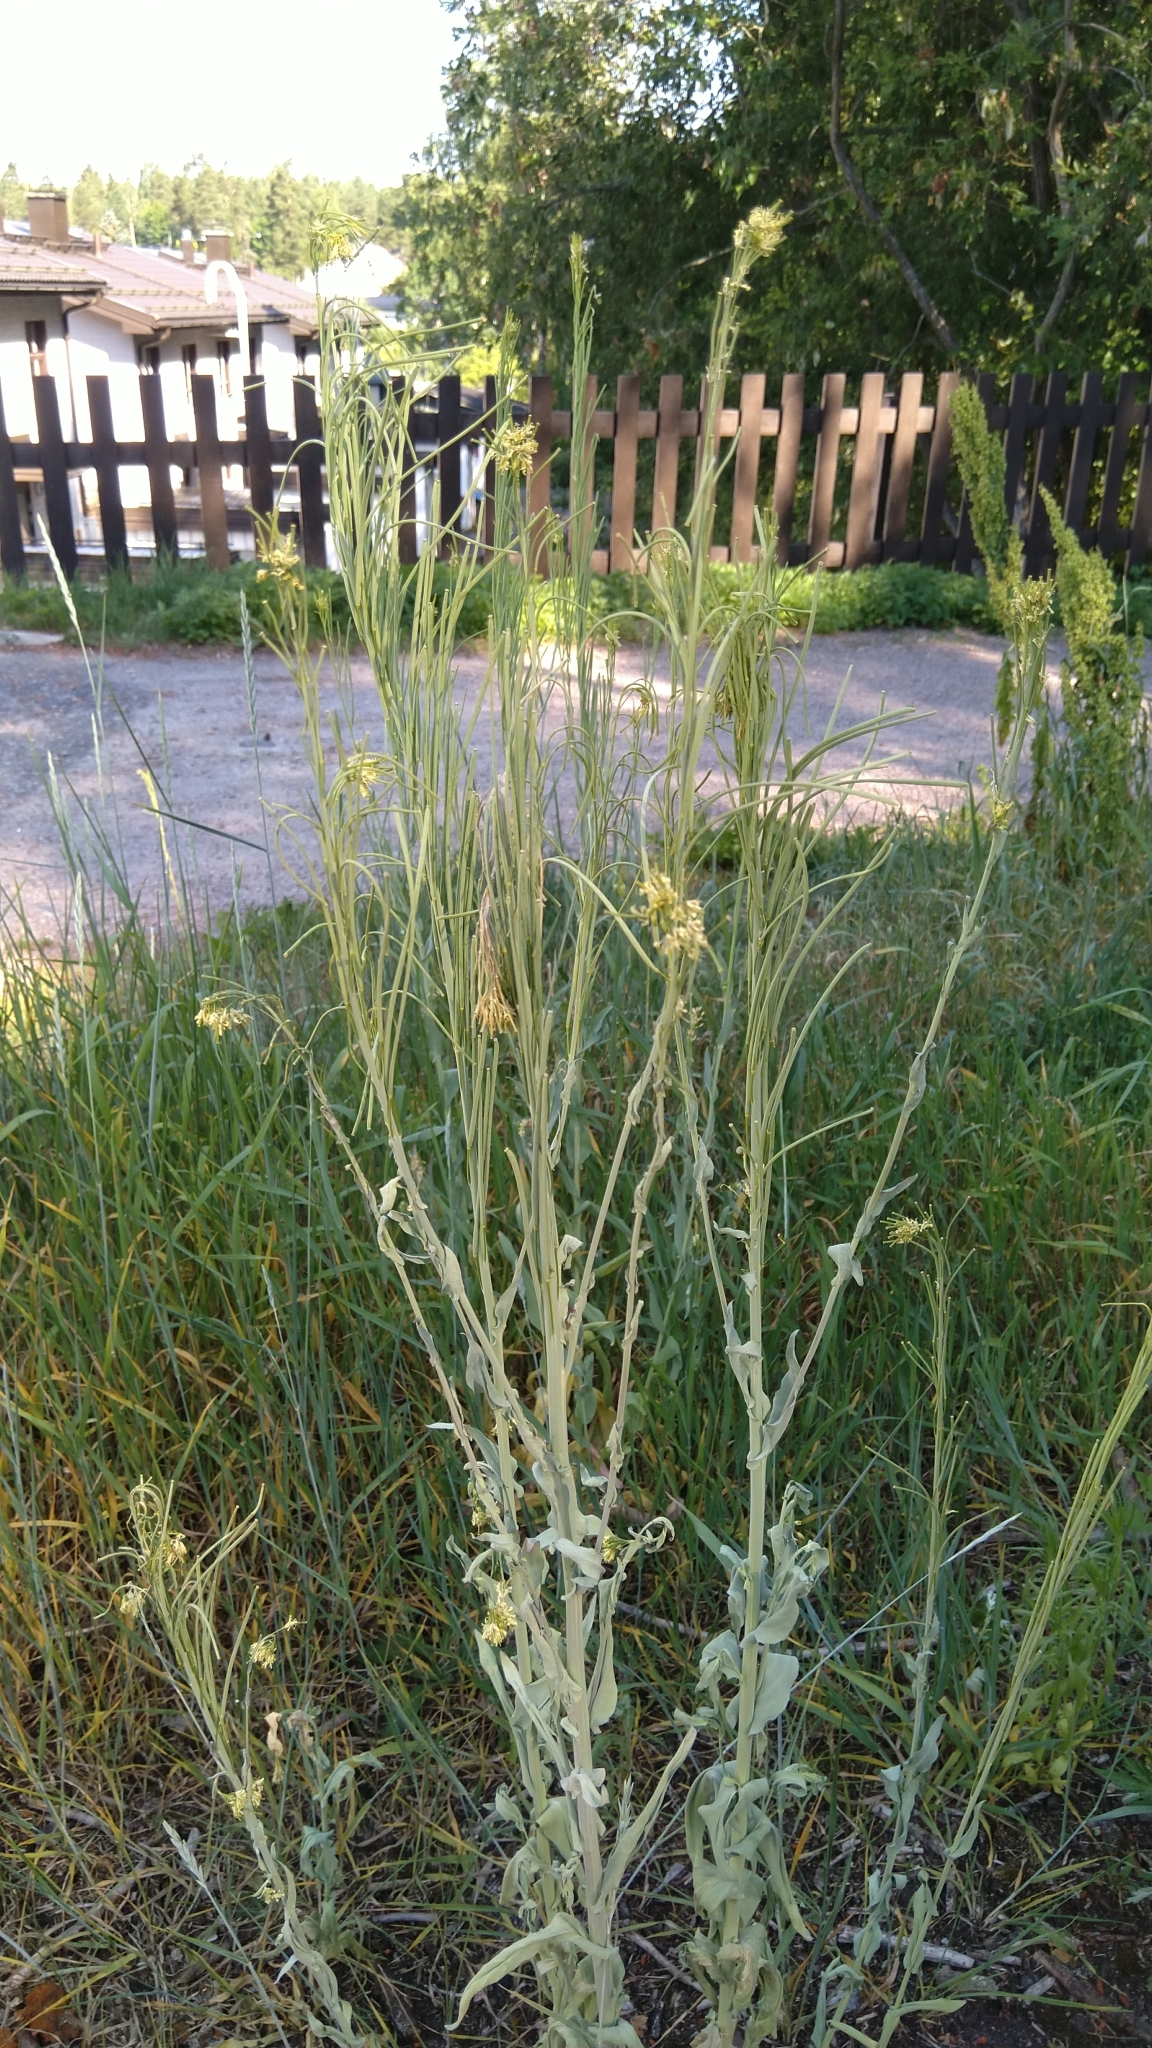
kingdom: Plantae
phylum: Tracheophyta
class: Magnoliopsida
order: Brassicales
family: Brassicaceae
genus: Turritis
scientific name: Turritis glabra
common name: Tower rockcress
